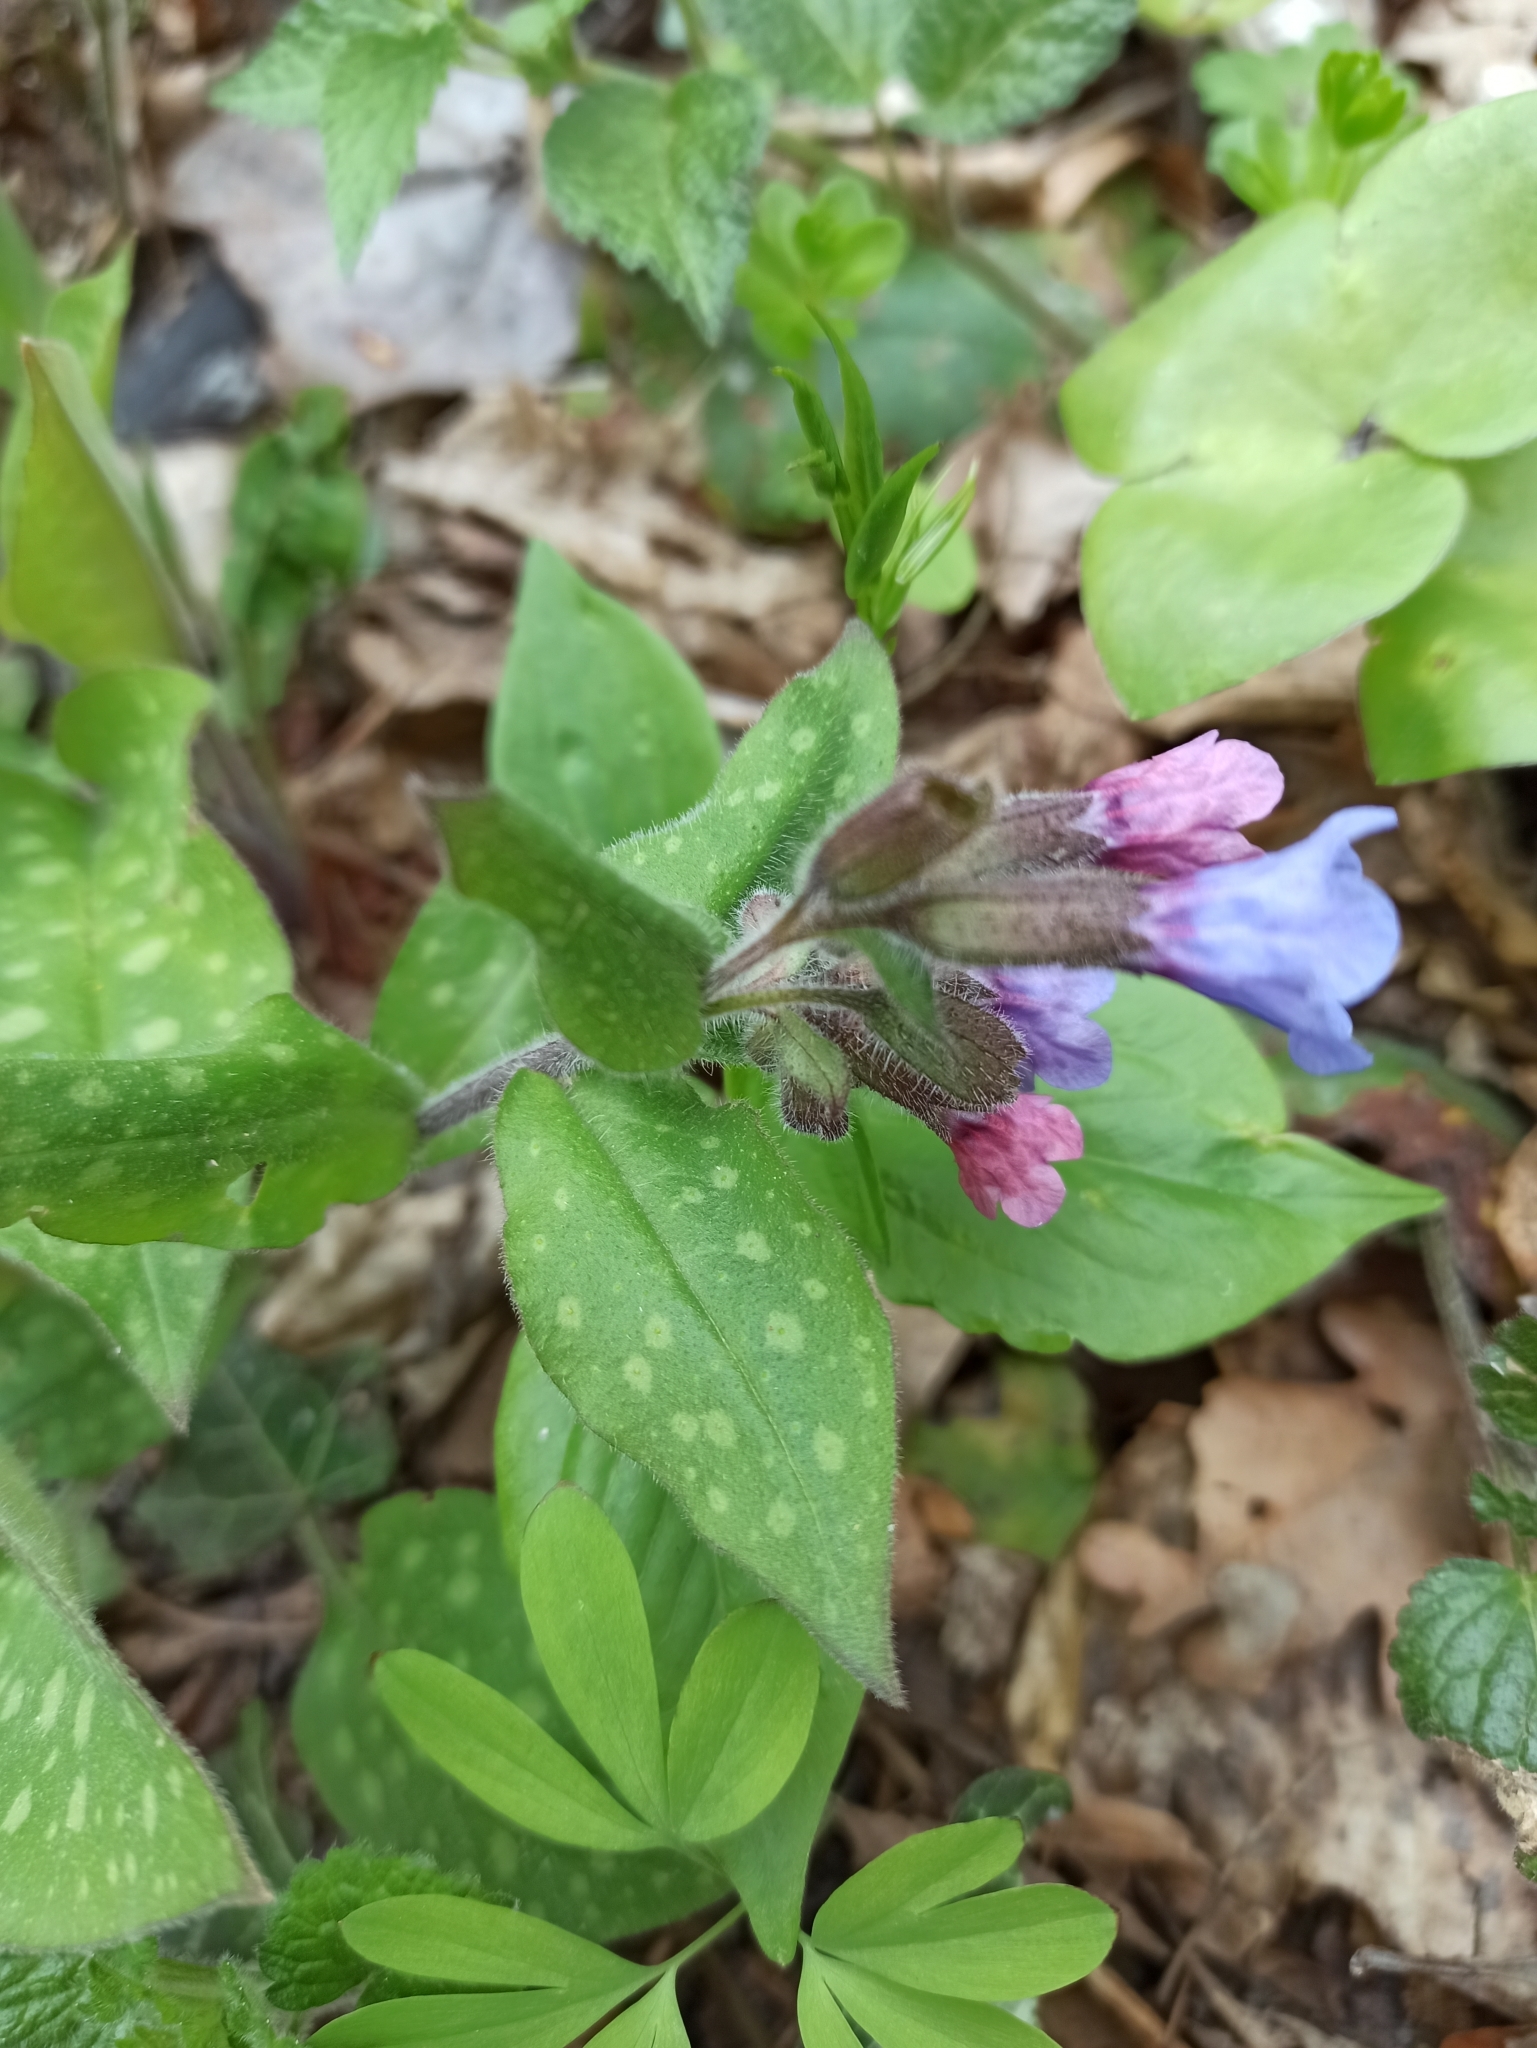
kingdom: Plantae
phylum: Tracheophyta
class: Magnoliopsida
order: Boraginales
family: Boraginaceae
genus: Pulmonaria
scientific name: Pulmonaria officinalis
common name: Lungwort
